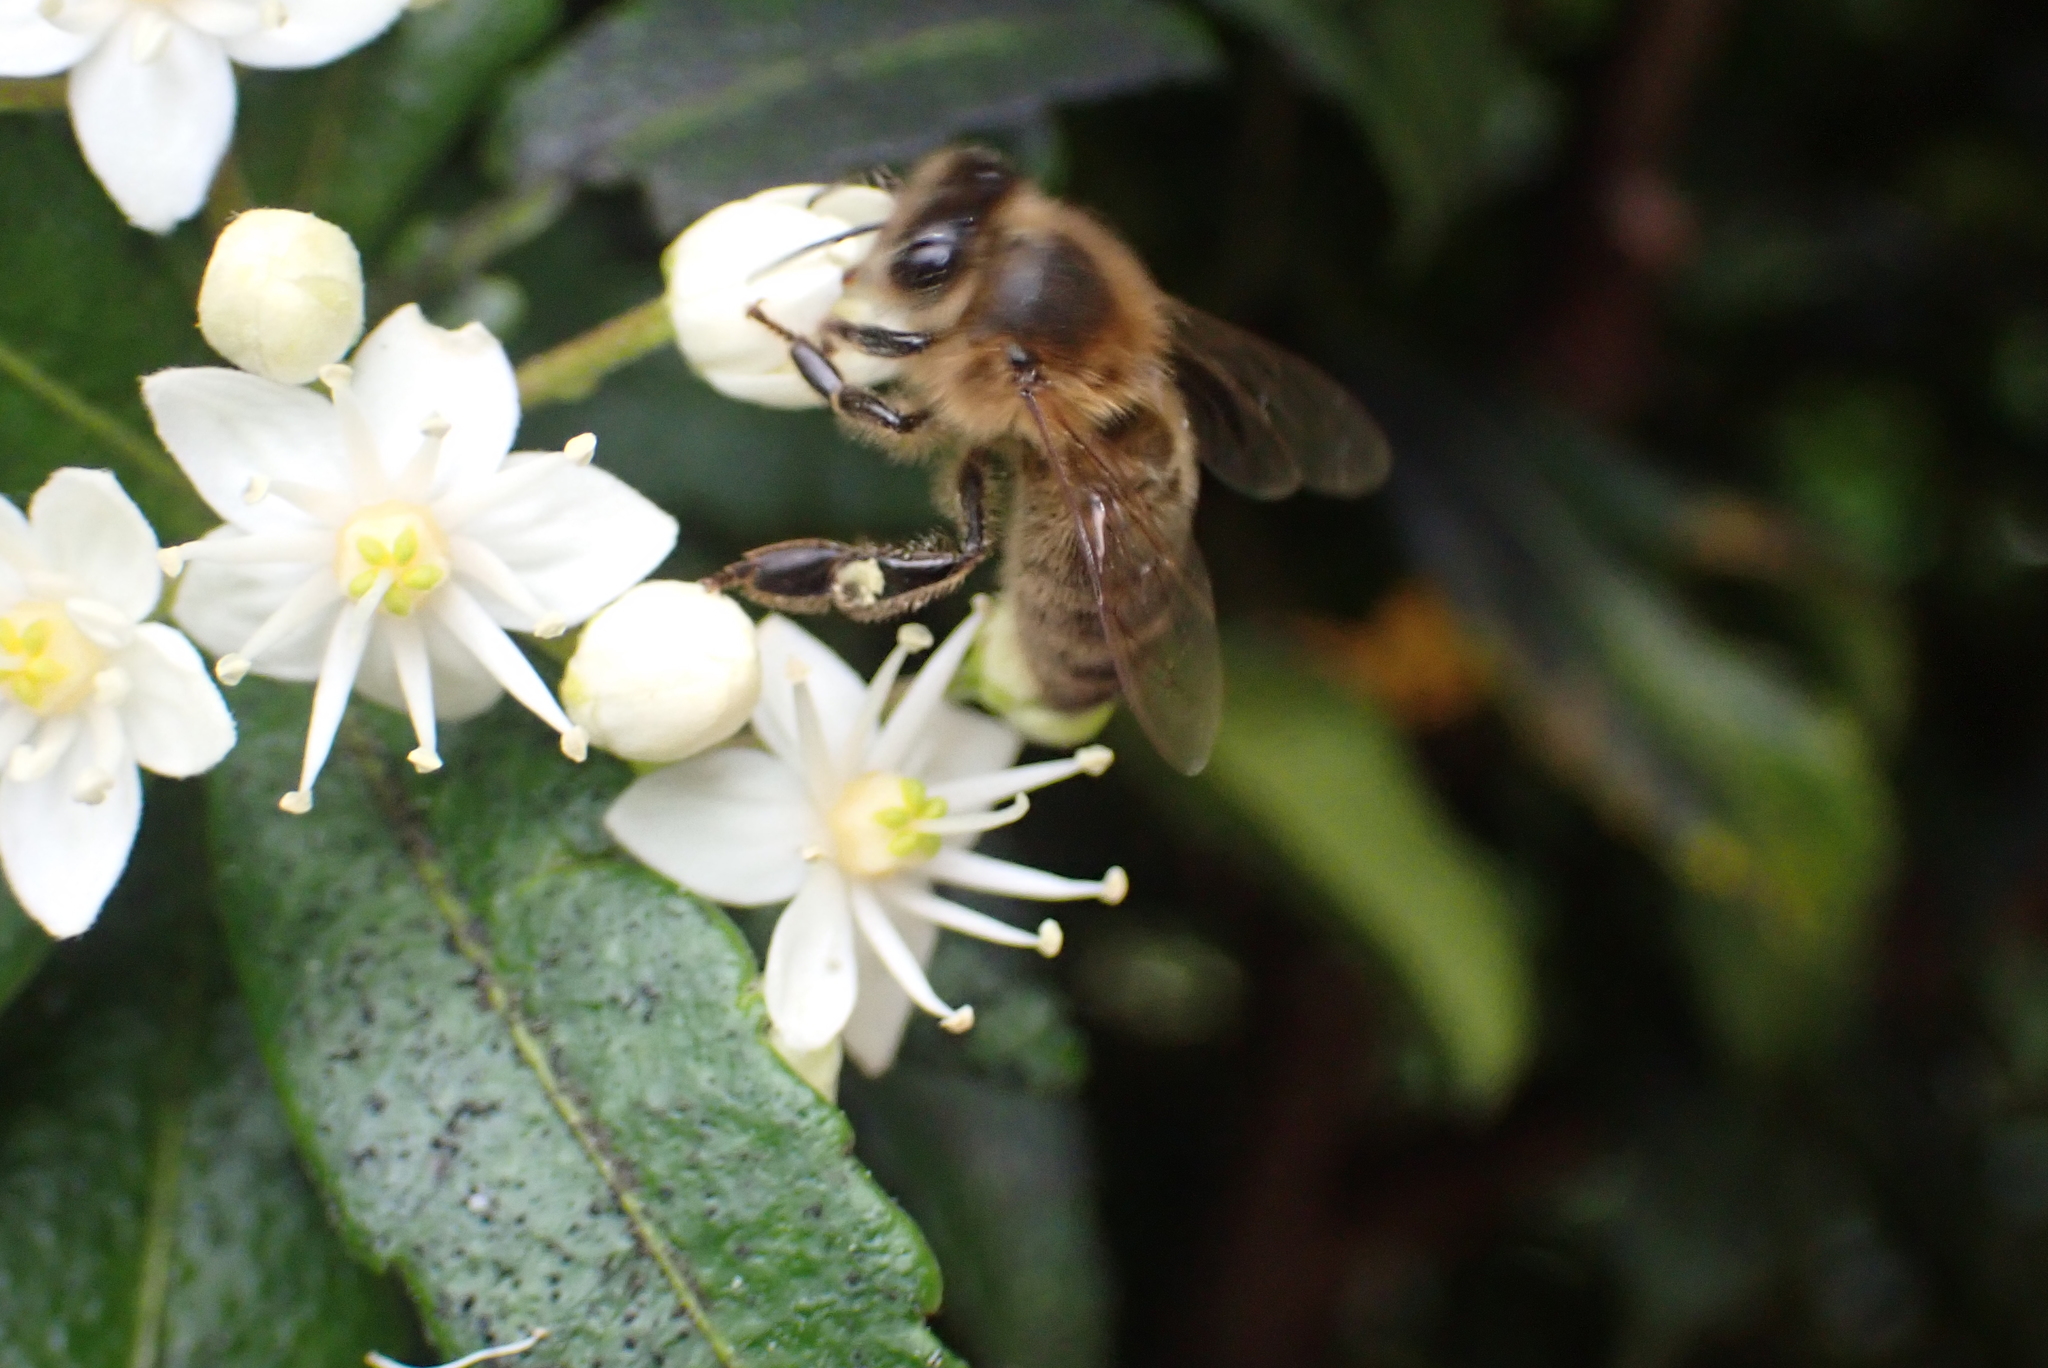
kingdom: Animalia
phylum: Arthropoda
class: Insecta
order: Hymenoptera
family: Apidae
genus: Apis
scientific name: Apis mellifera
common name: Honey bee
